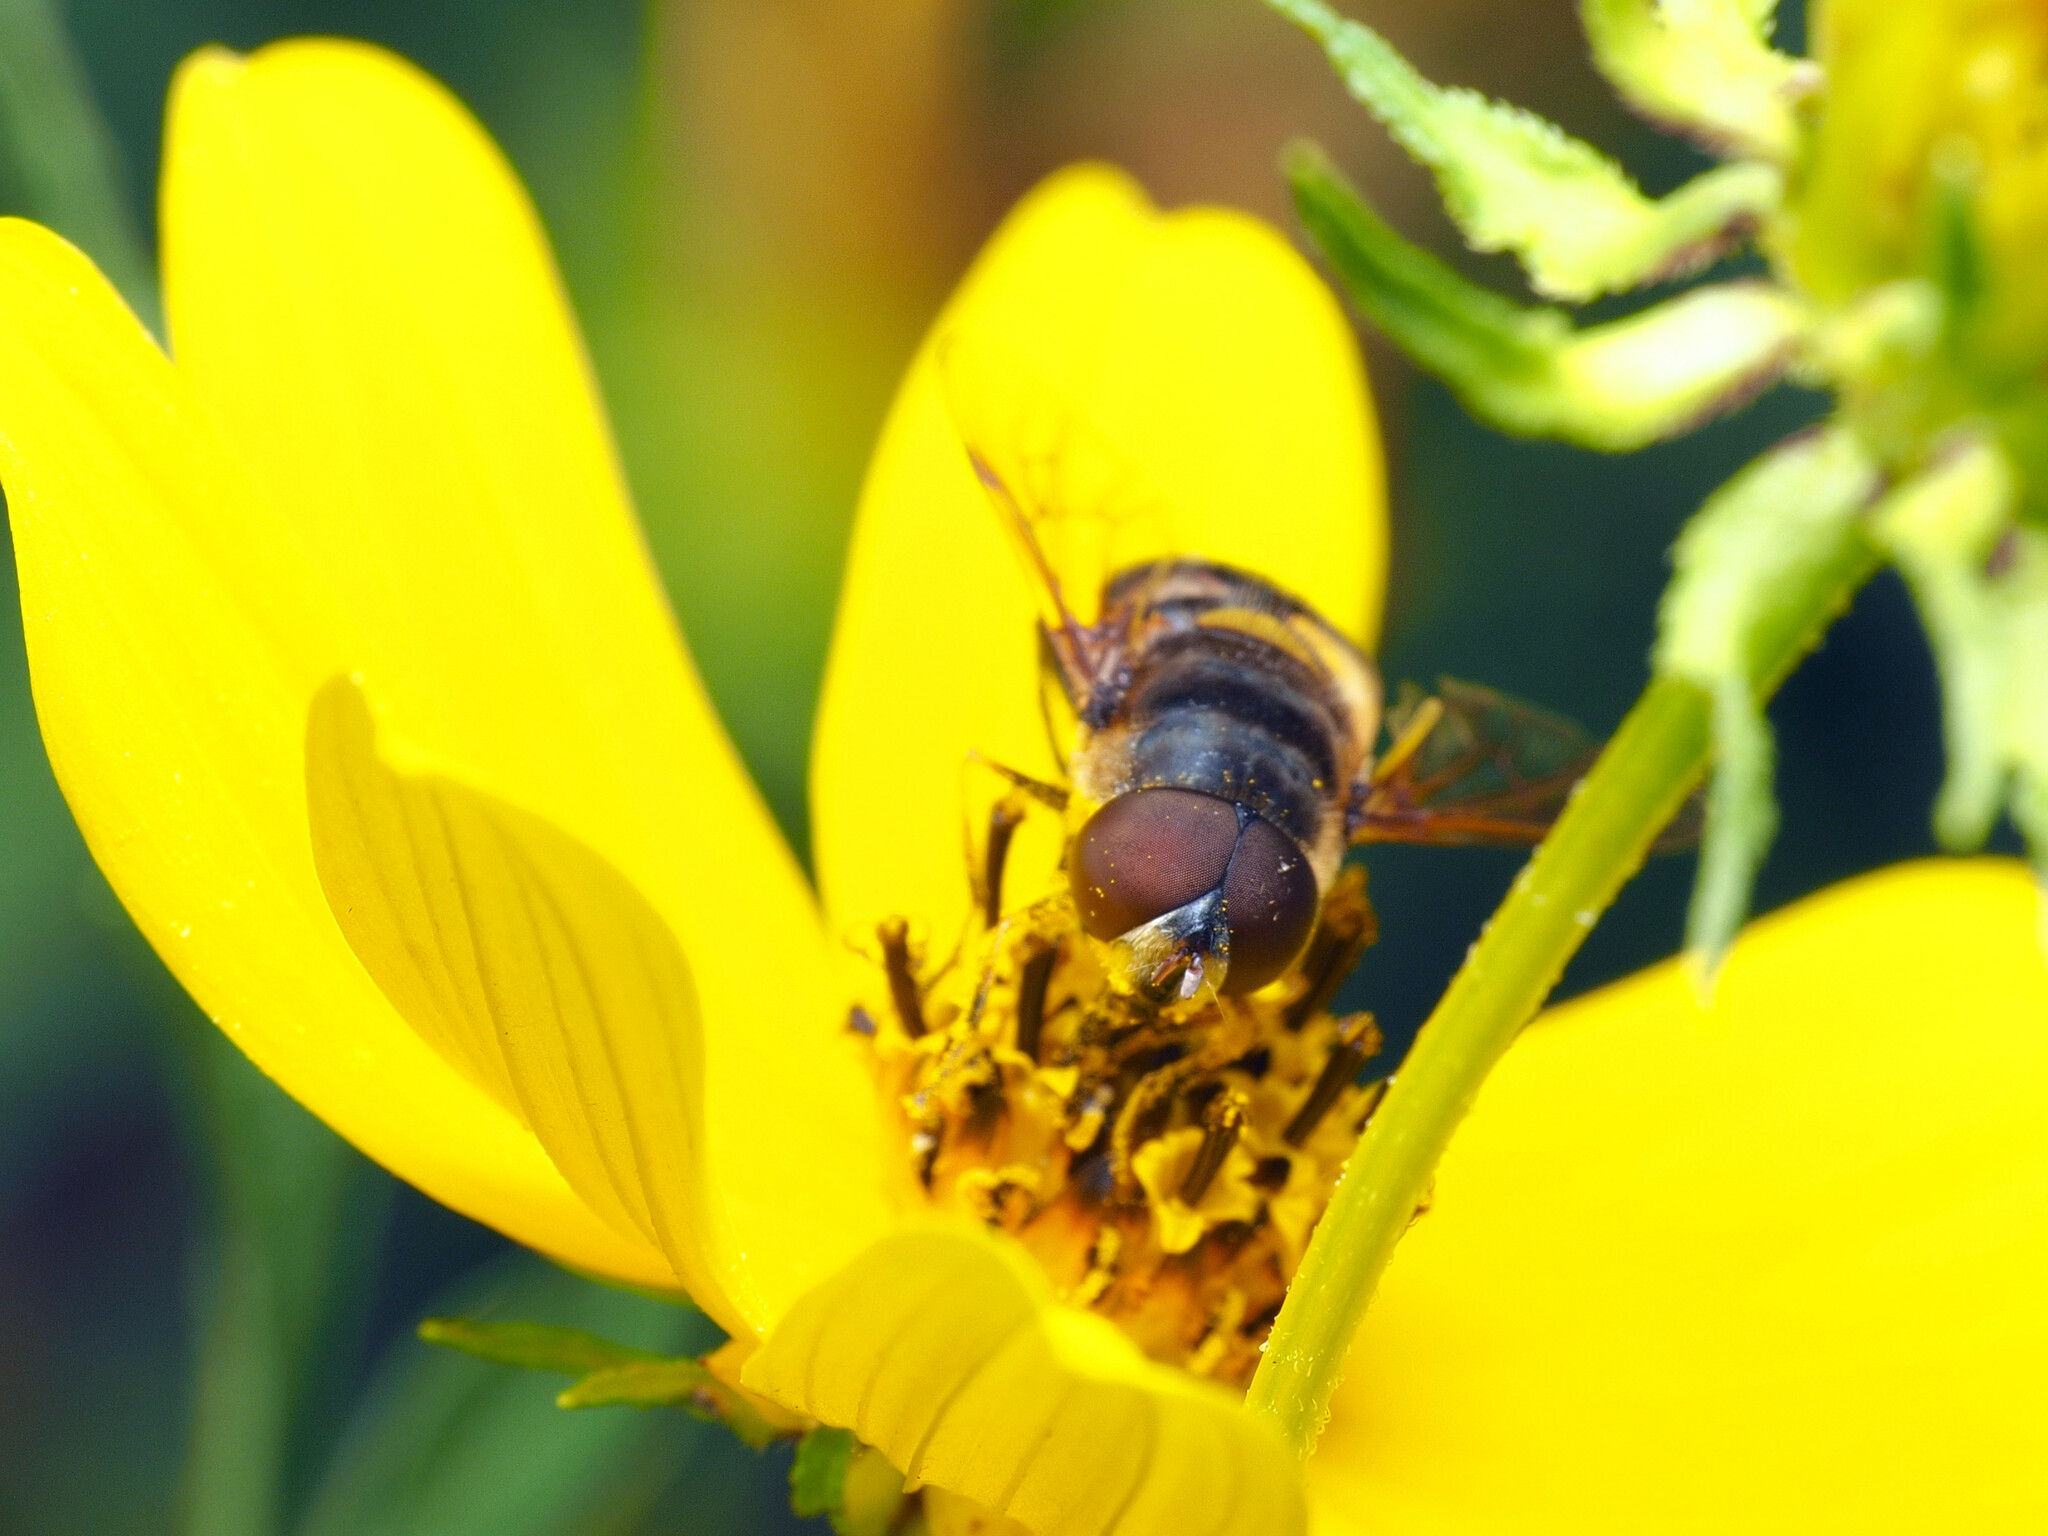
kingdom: Animalia
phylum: Arthropoda
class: Insecta
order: Diptera
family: Syrphidae
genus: Eristalis
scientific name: Eristalis transversa
